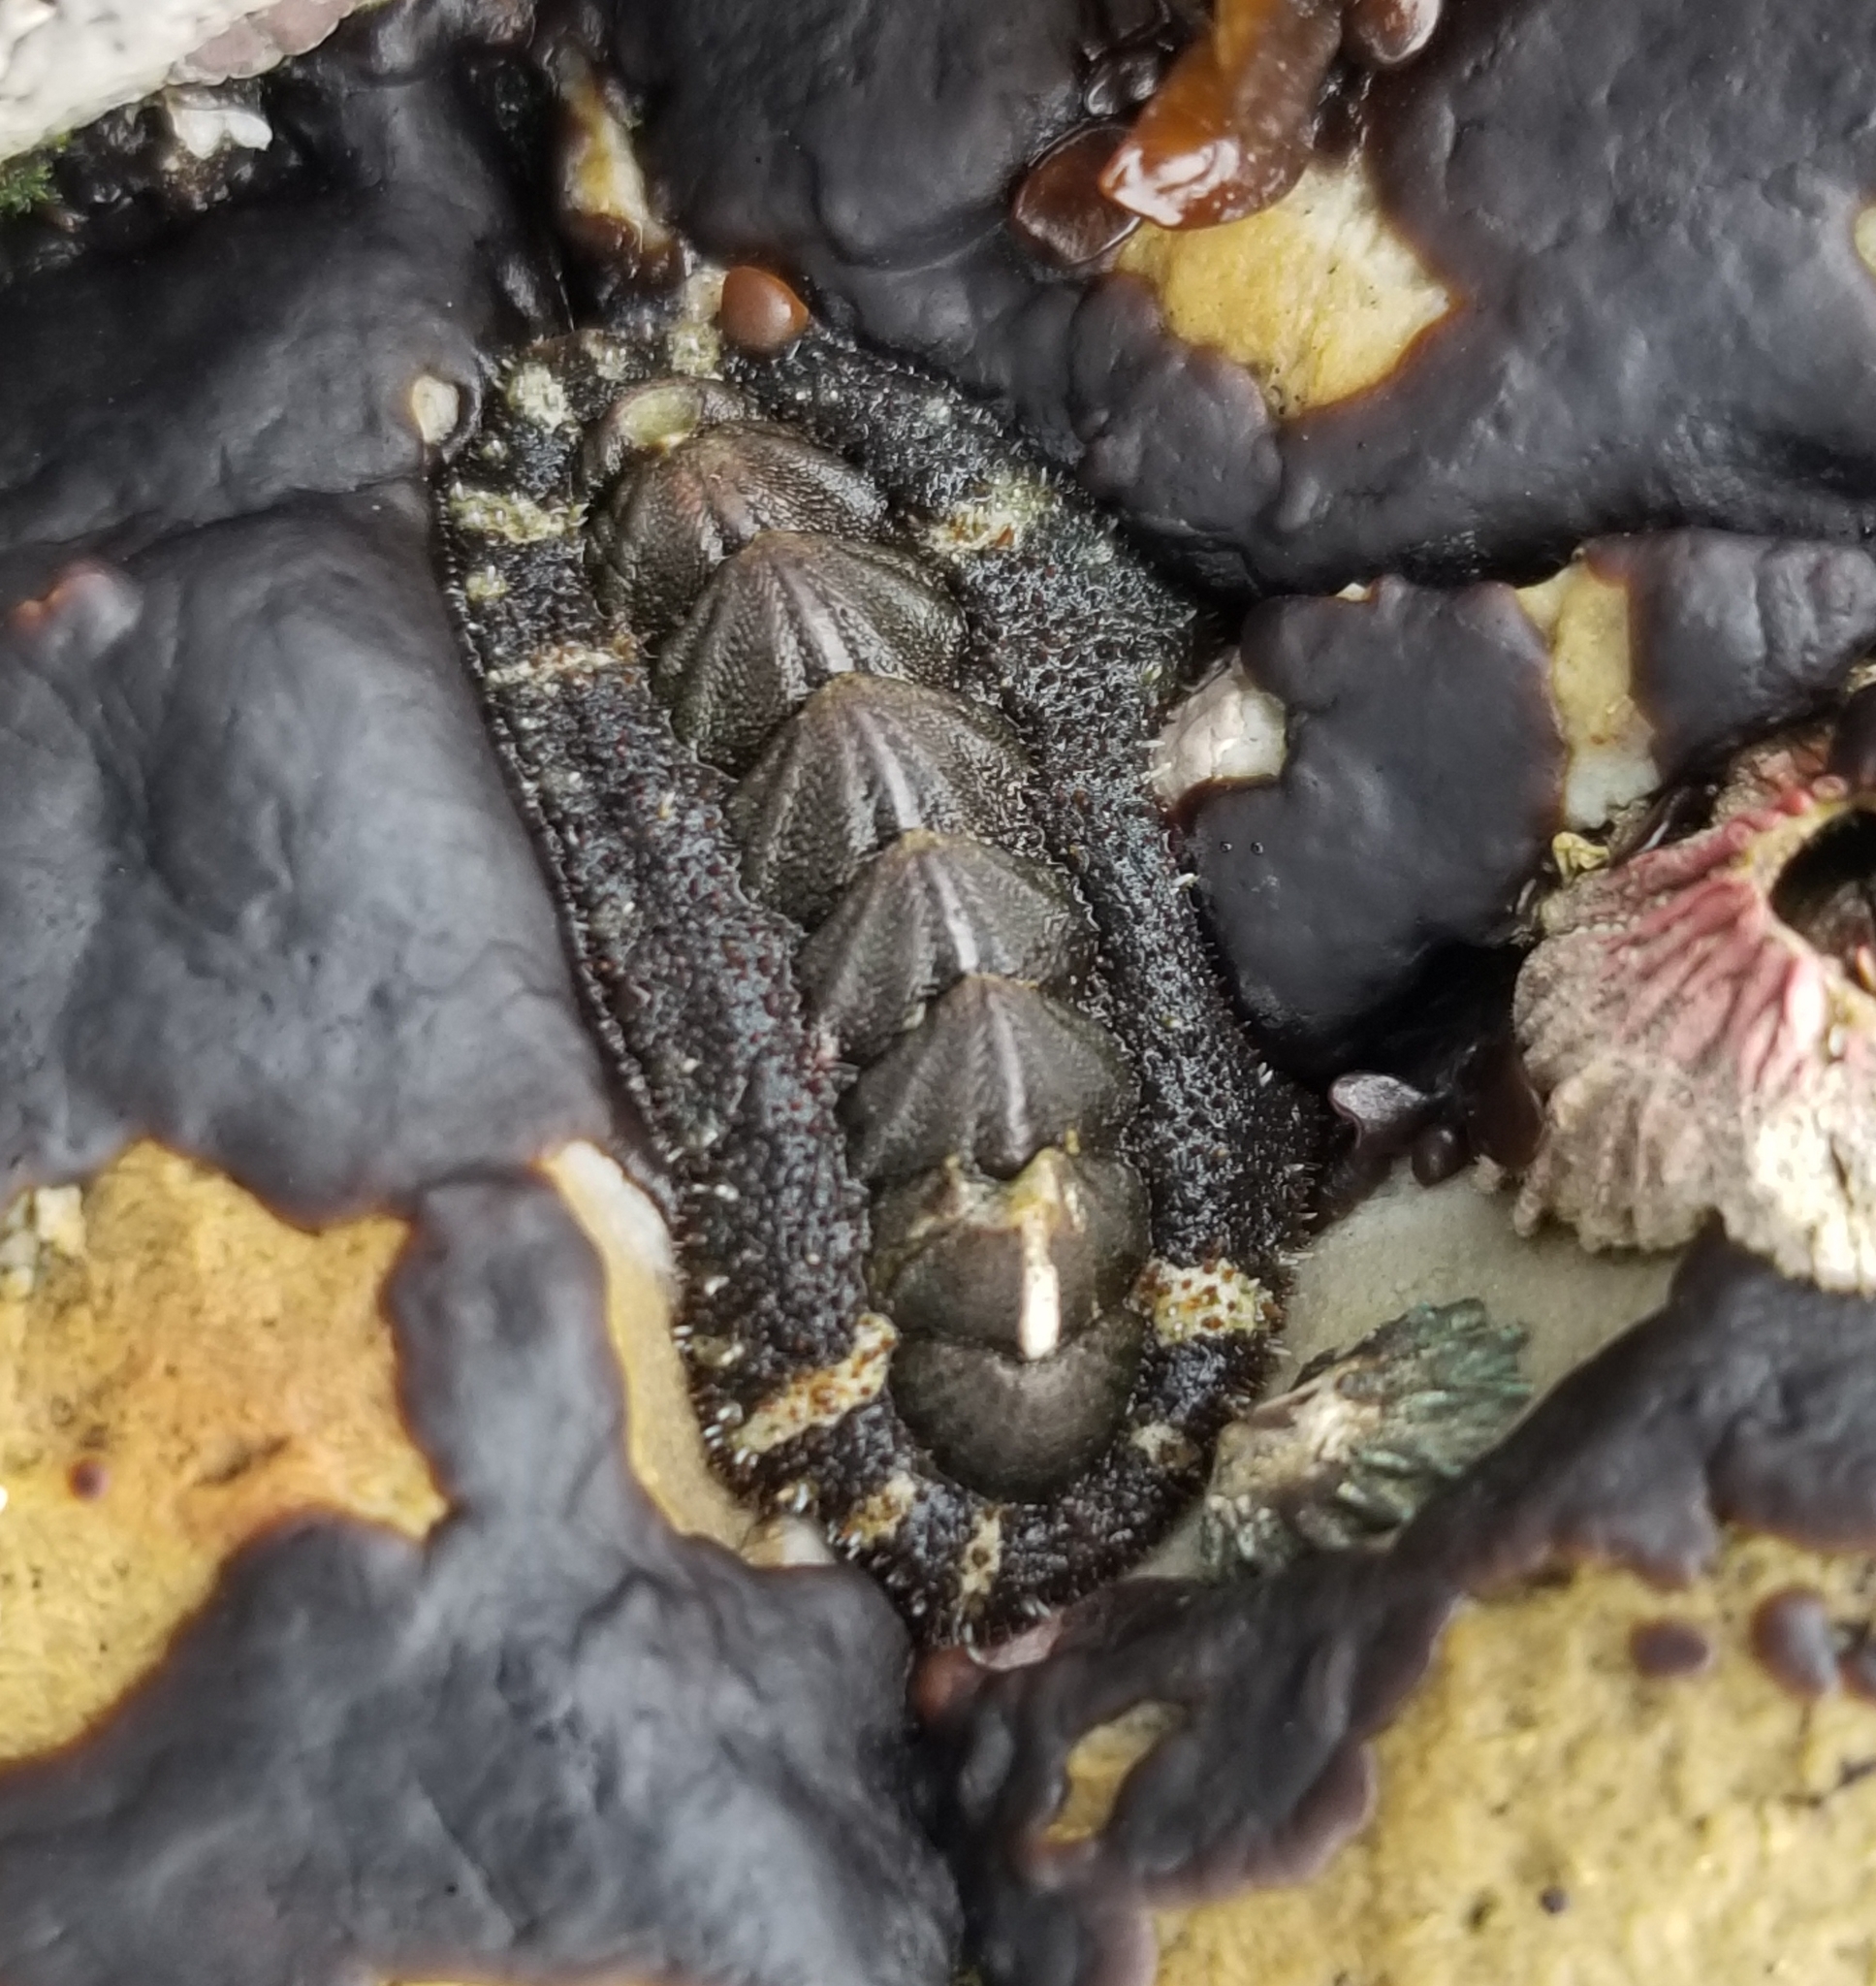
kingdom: Animalia
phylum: Mollusca
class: Polyplacophora
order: Chitonida
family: Tonicellidae
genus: Nuttallina
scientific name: Nuttallina californica
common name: California nuttall chiton
